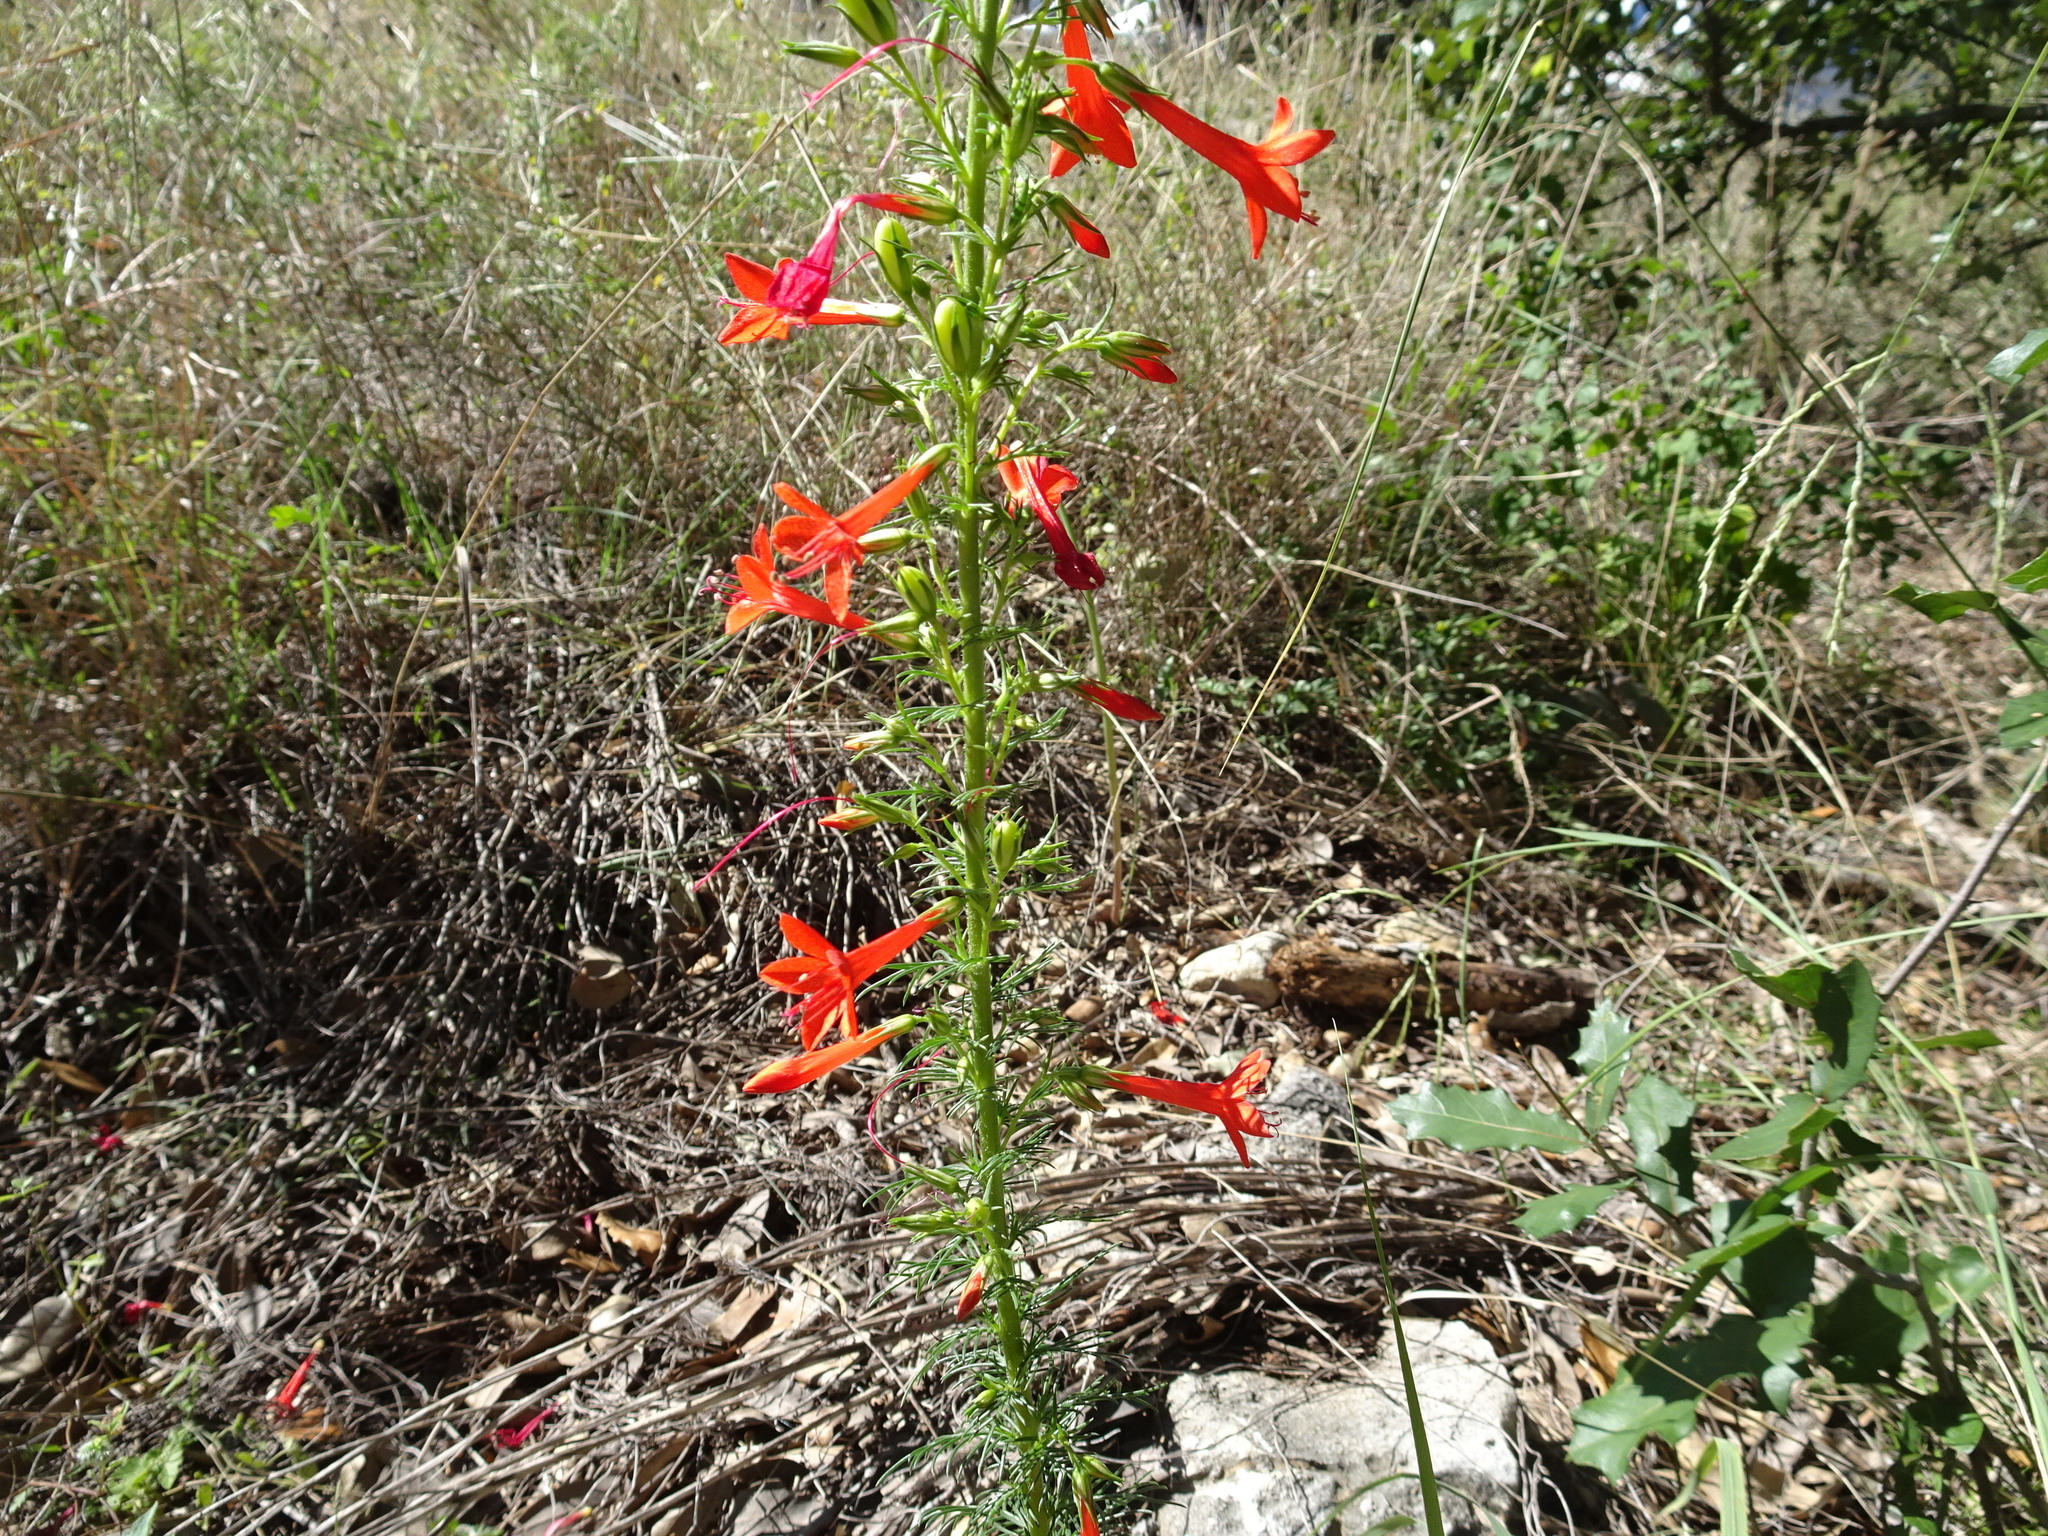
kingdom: Plantae
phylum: Tracheophyta
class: Magnoliopsida
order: Ericales
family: Polemoniaceae
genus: Ipomopsis
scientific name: Ipomopsis rubra
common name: Skyrocket
